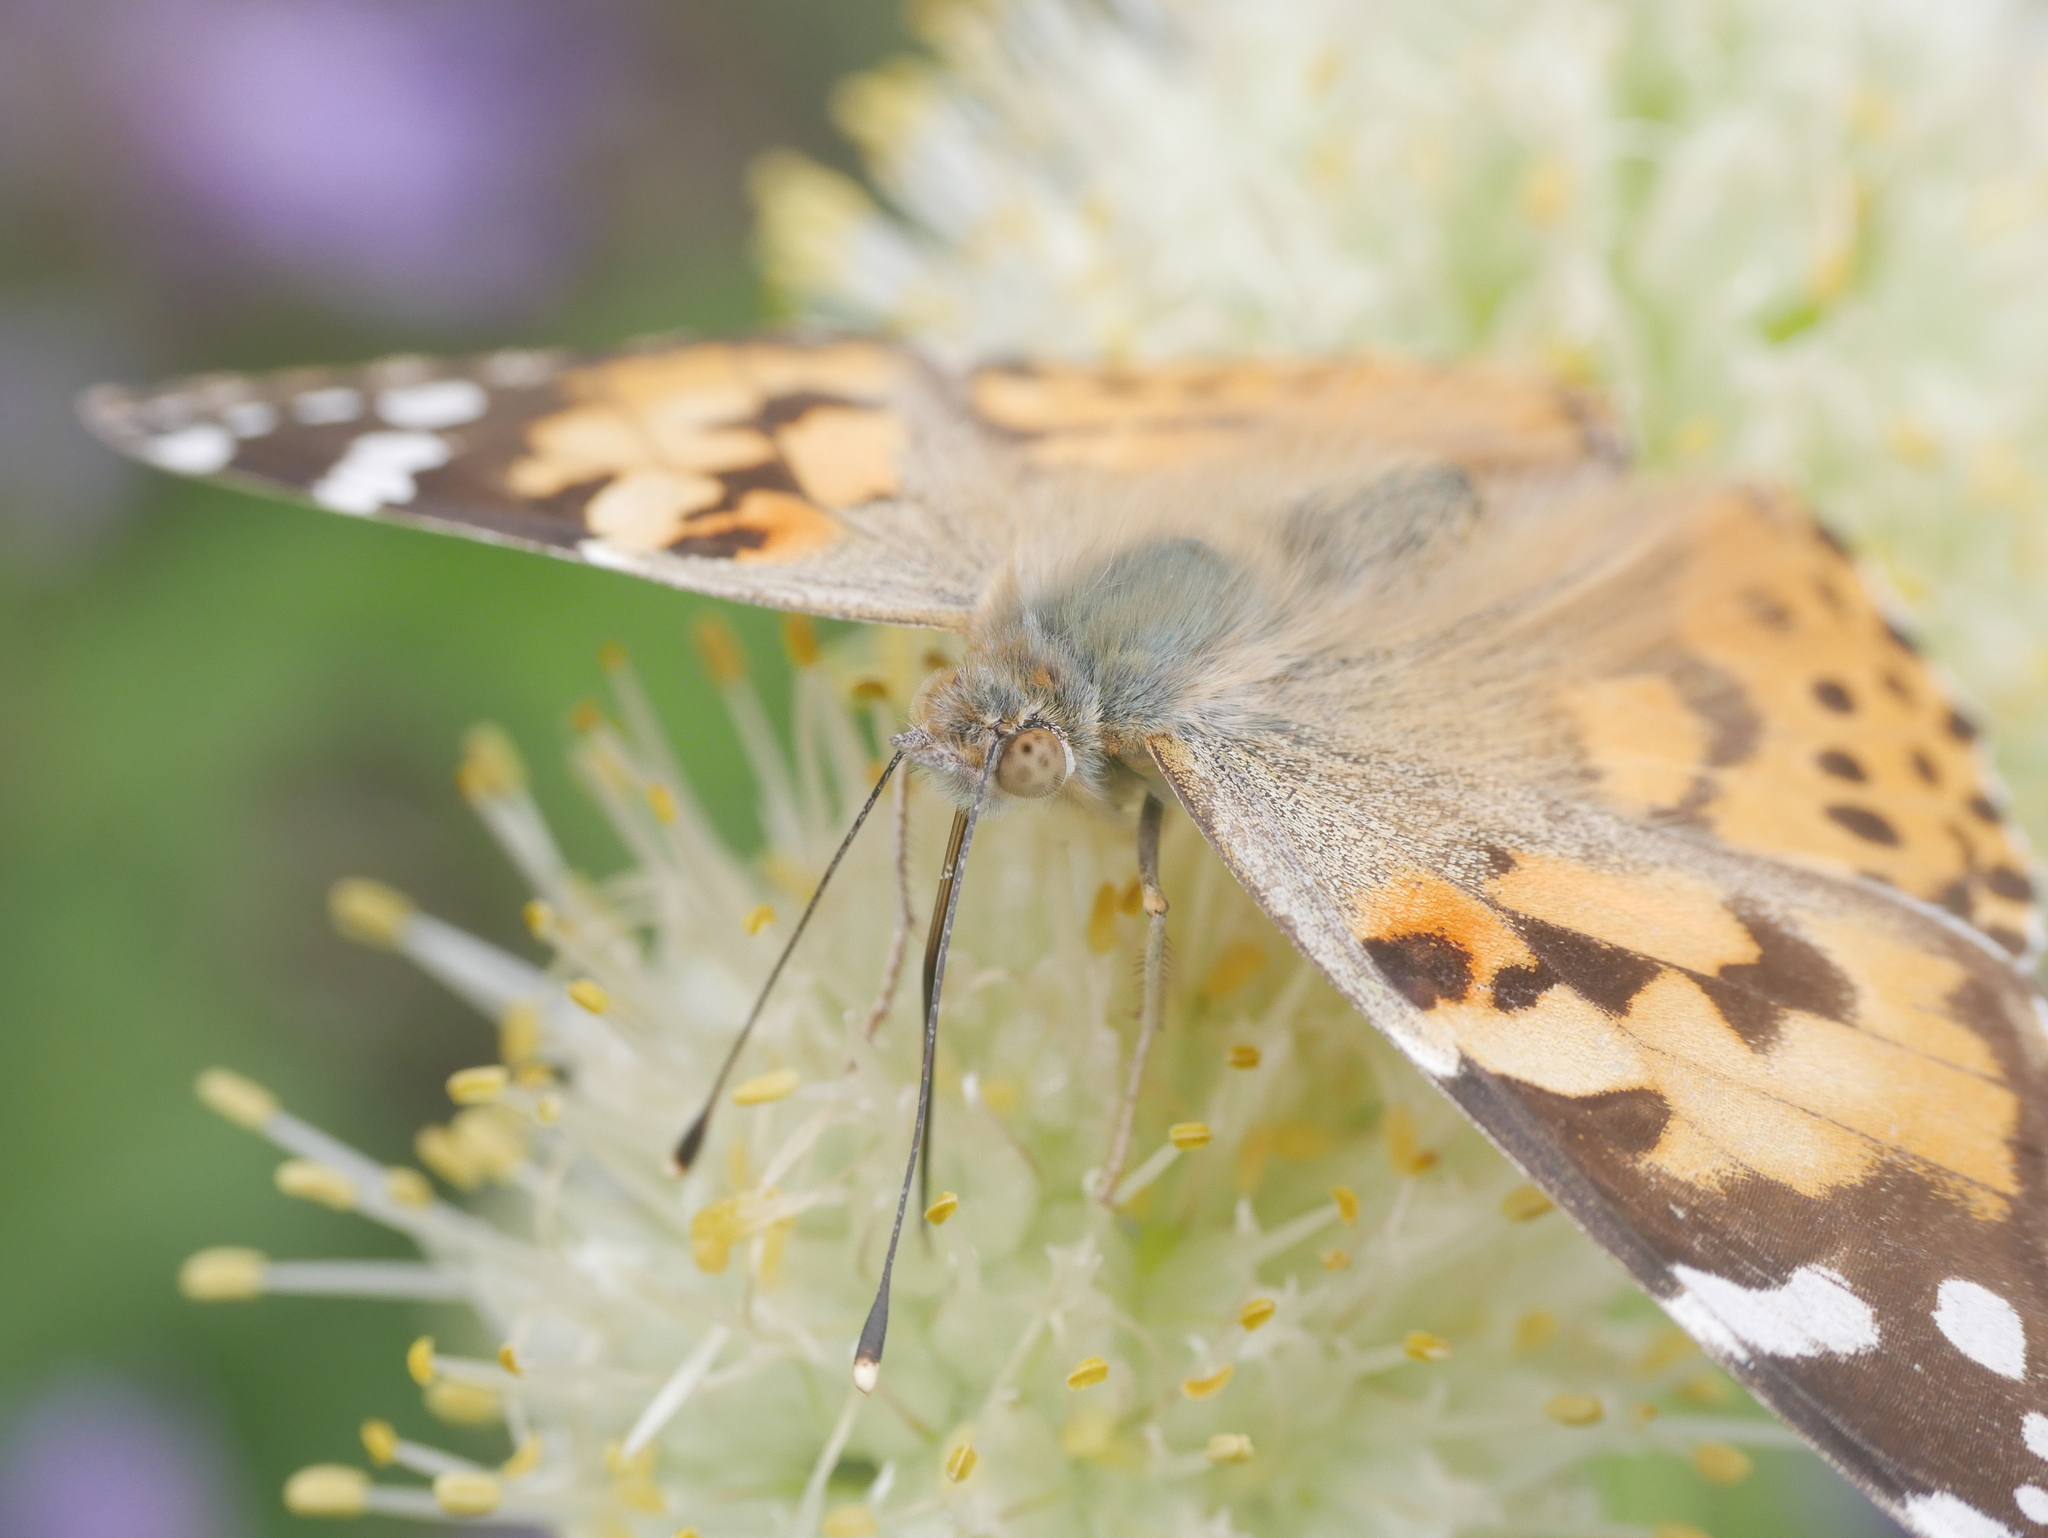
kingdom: Animalia
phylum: Arthropoda
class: Insecta
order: Lepidoptera
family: Nymphalidae
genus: Vanessa
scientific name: Vanessa cardui
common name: Painted lady
